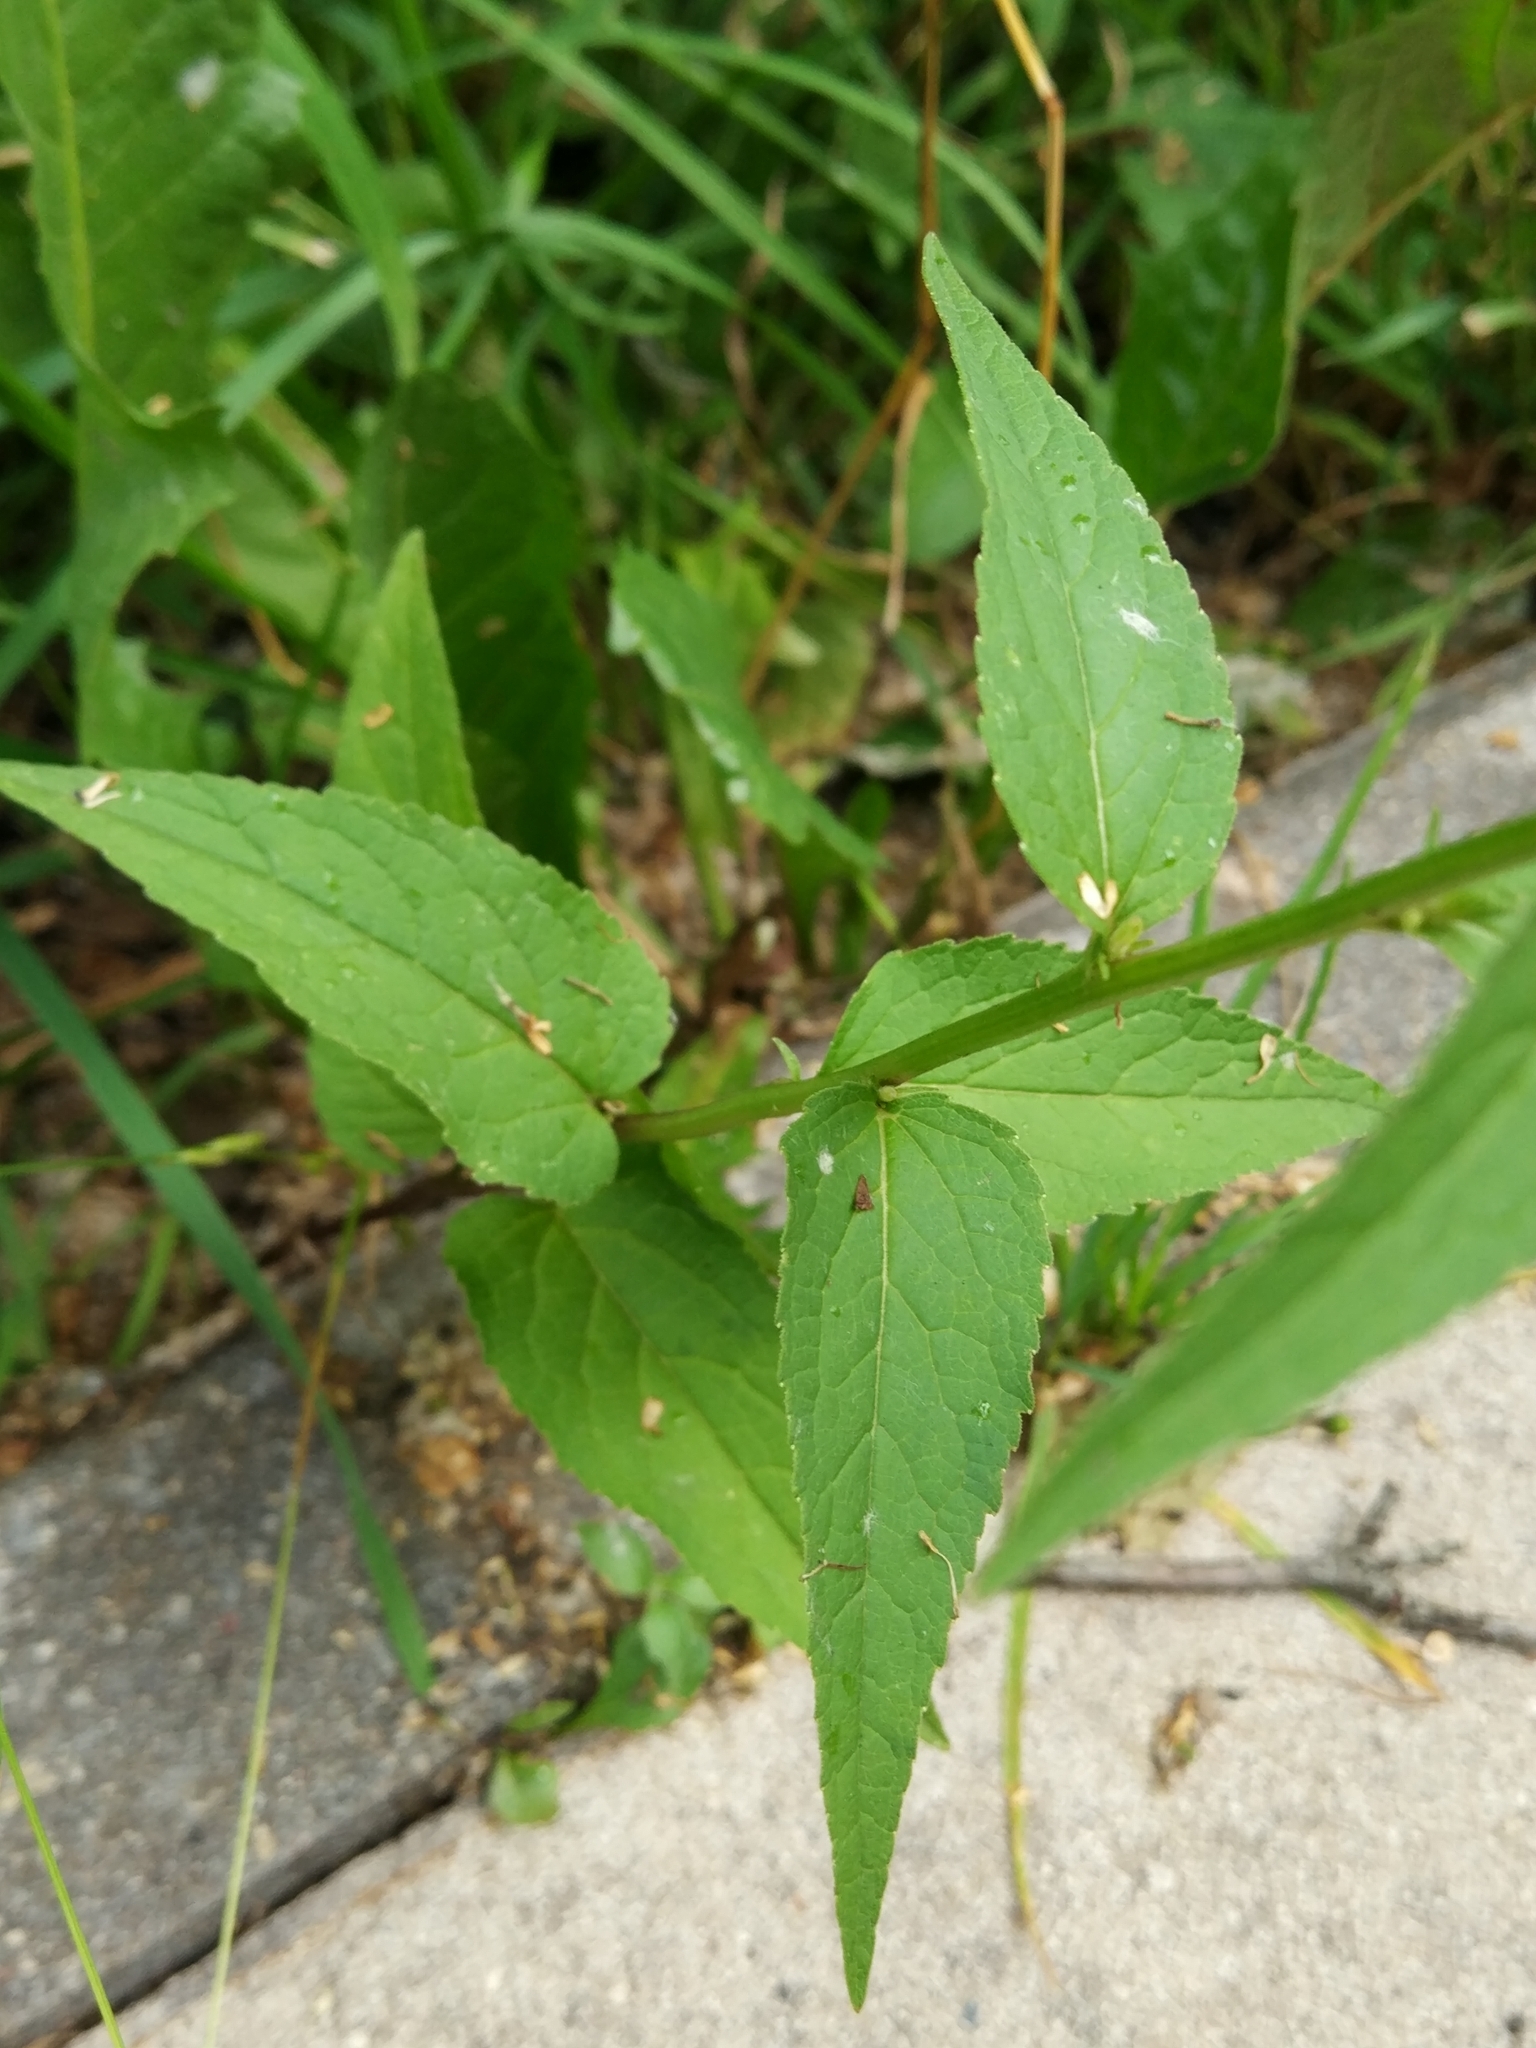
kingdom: Plantae
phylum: Tracheophyta
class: Magnoliopsida
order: Asterales
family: Campanulaceae
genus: Campanula
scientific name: Campanula rapunculoides
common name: Creeping bellflower
